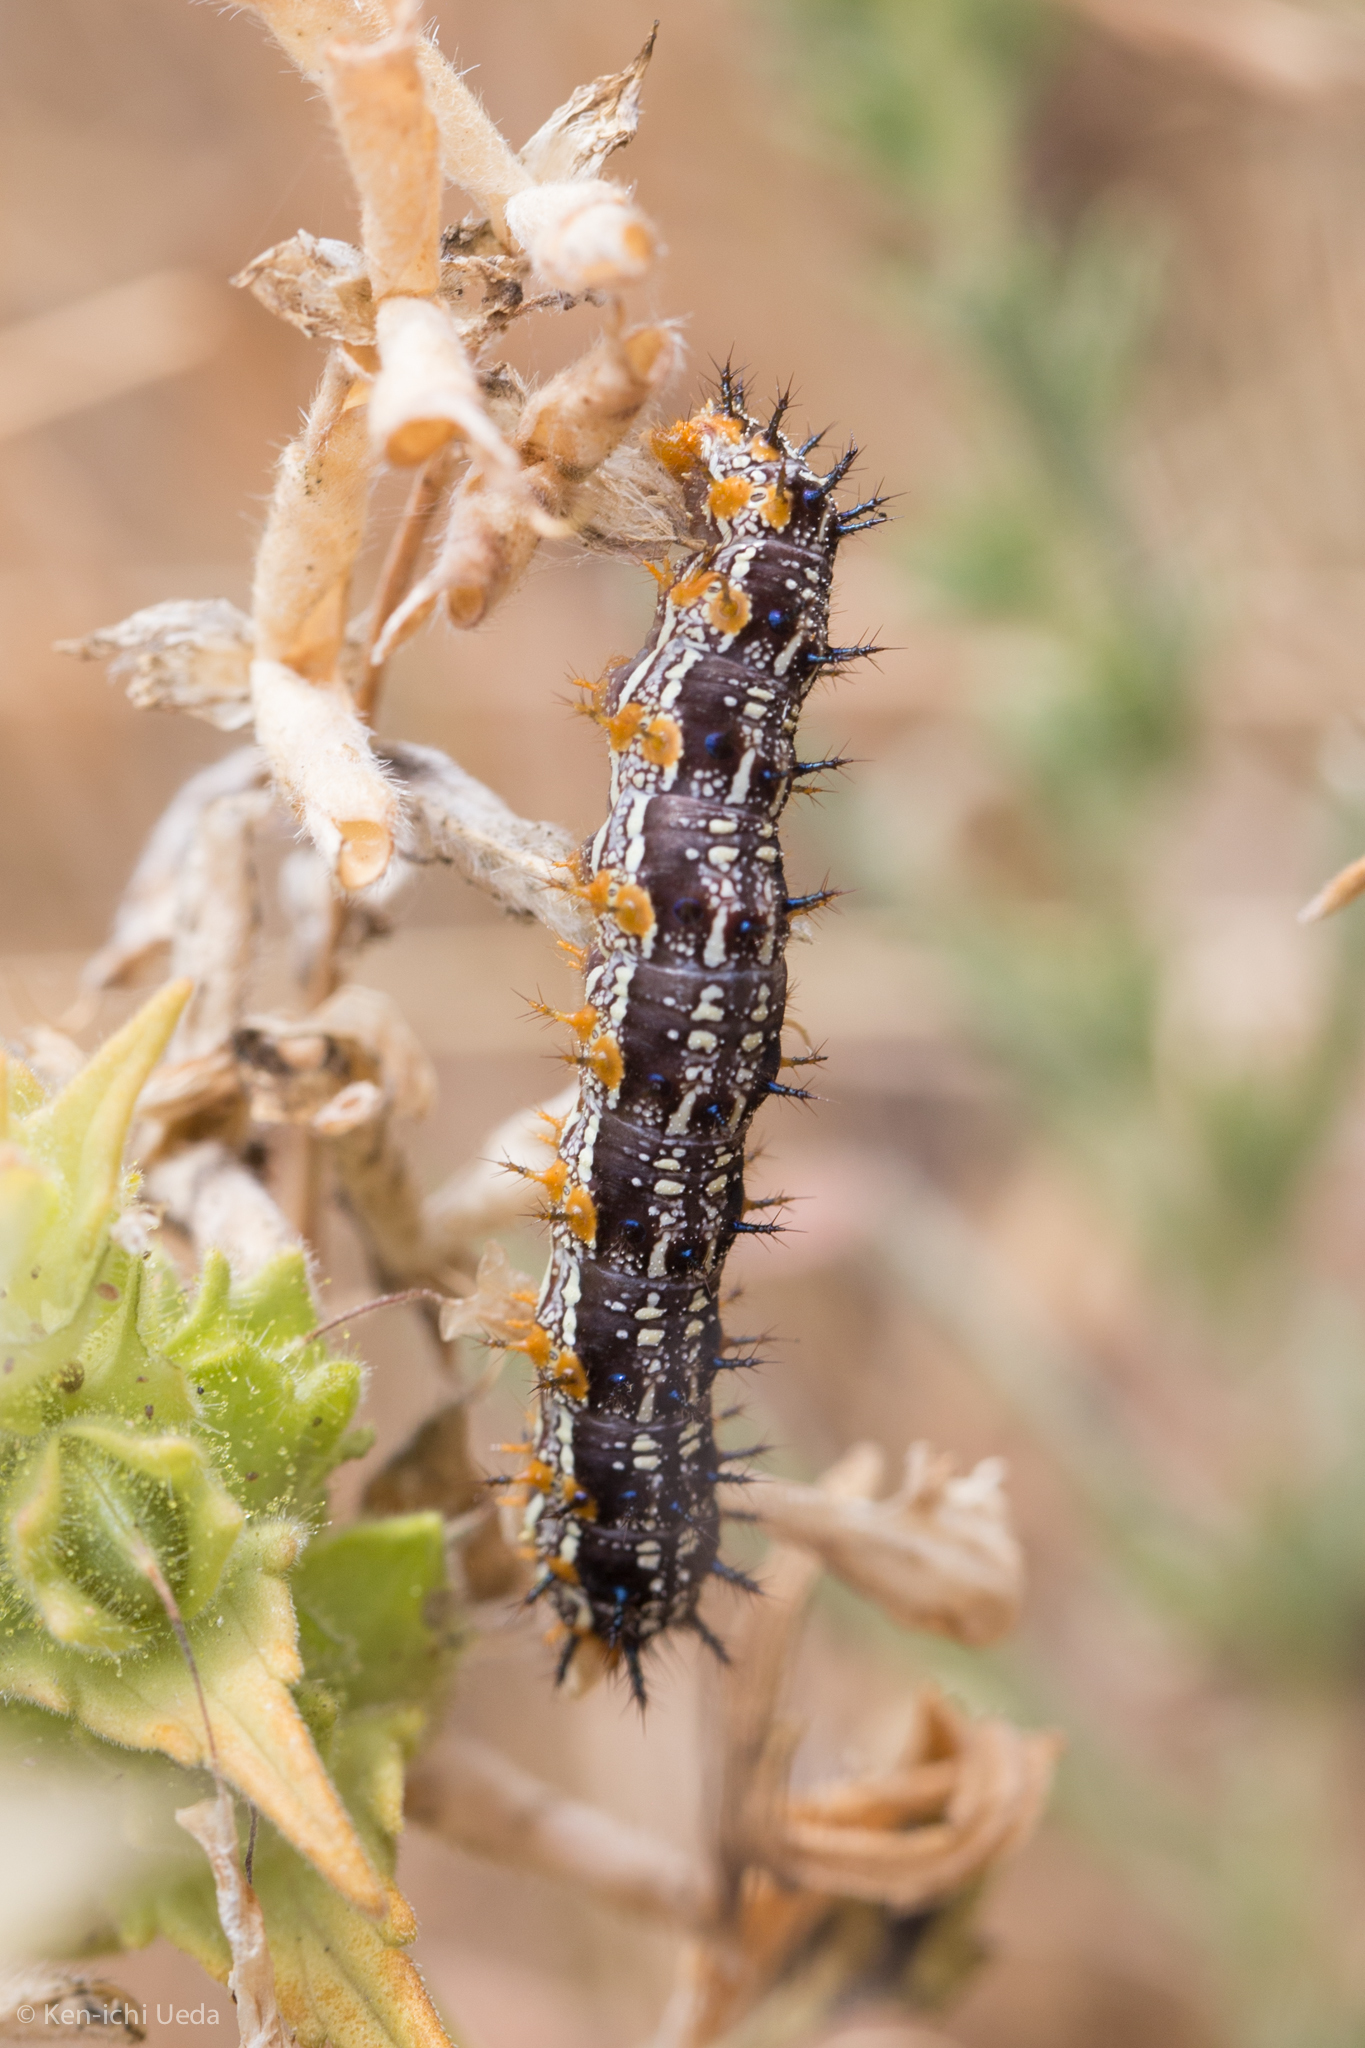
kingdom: Animalia
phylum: Arthropoda
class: Insecta
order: Lepidoptera
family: Nymphalidae
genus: Junonia
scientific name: Junonia grisea
